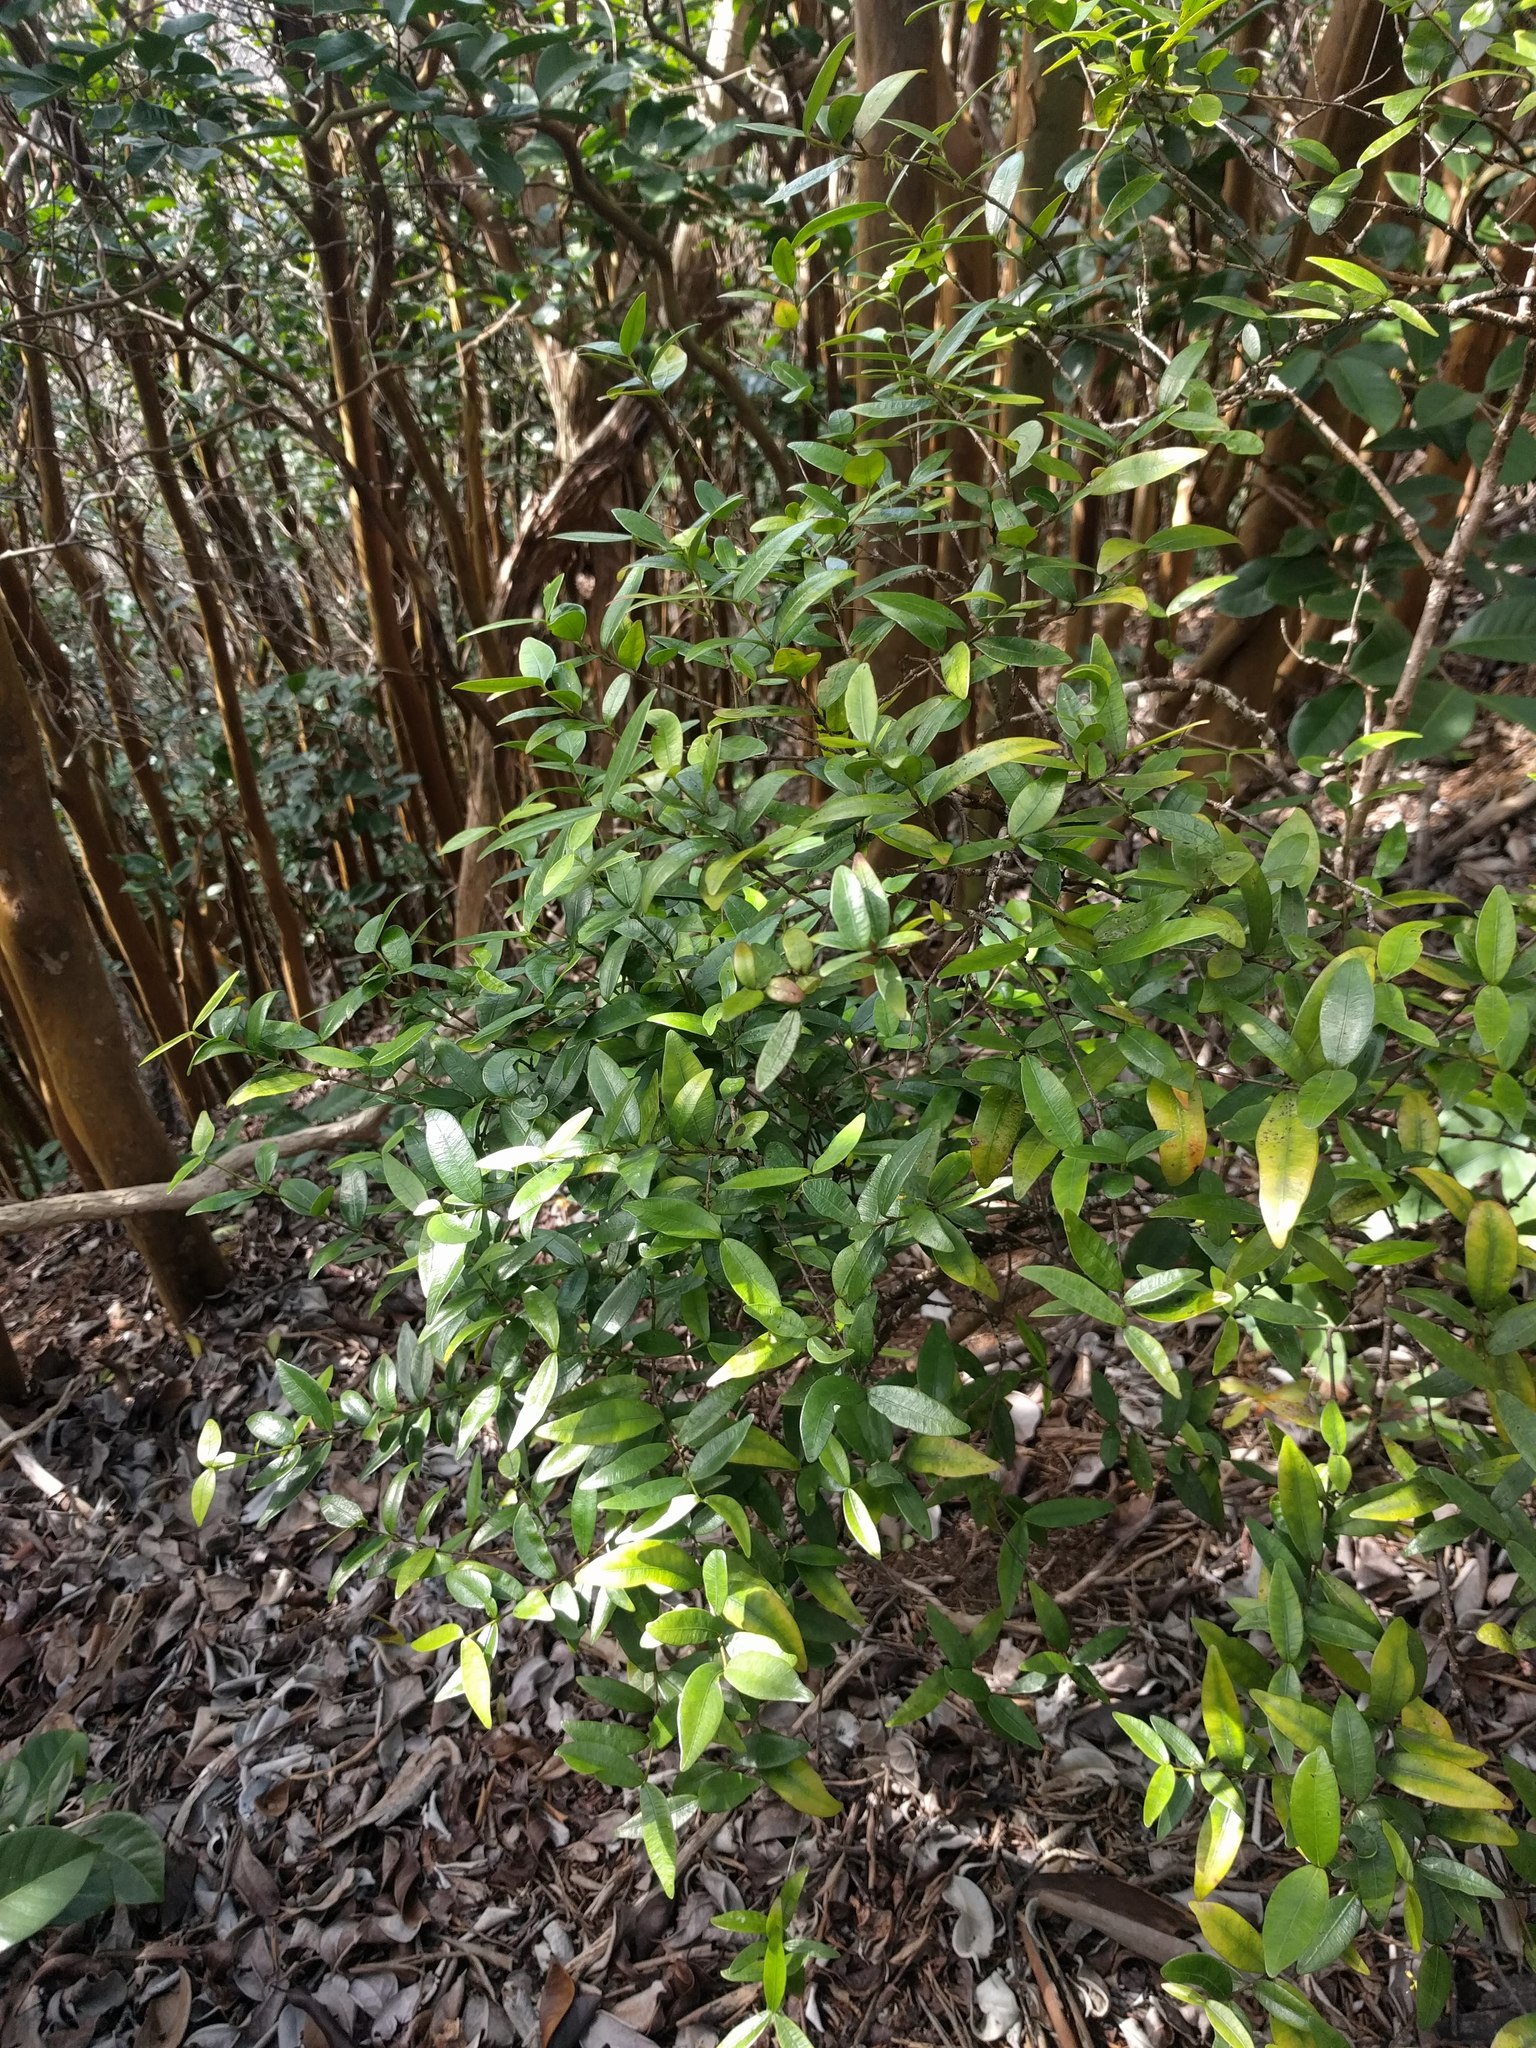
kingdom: Plantae
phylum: Tracheophyta
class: Magnoliopsida
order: Gentianales
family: Apocynaceae
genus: Alyxia
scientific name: Alyxia stellata
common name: Maile
